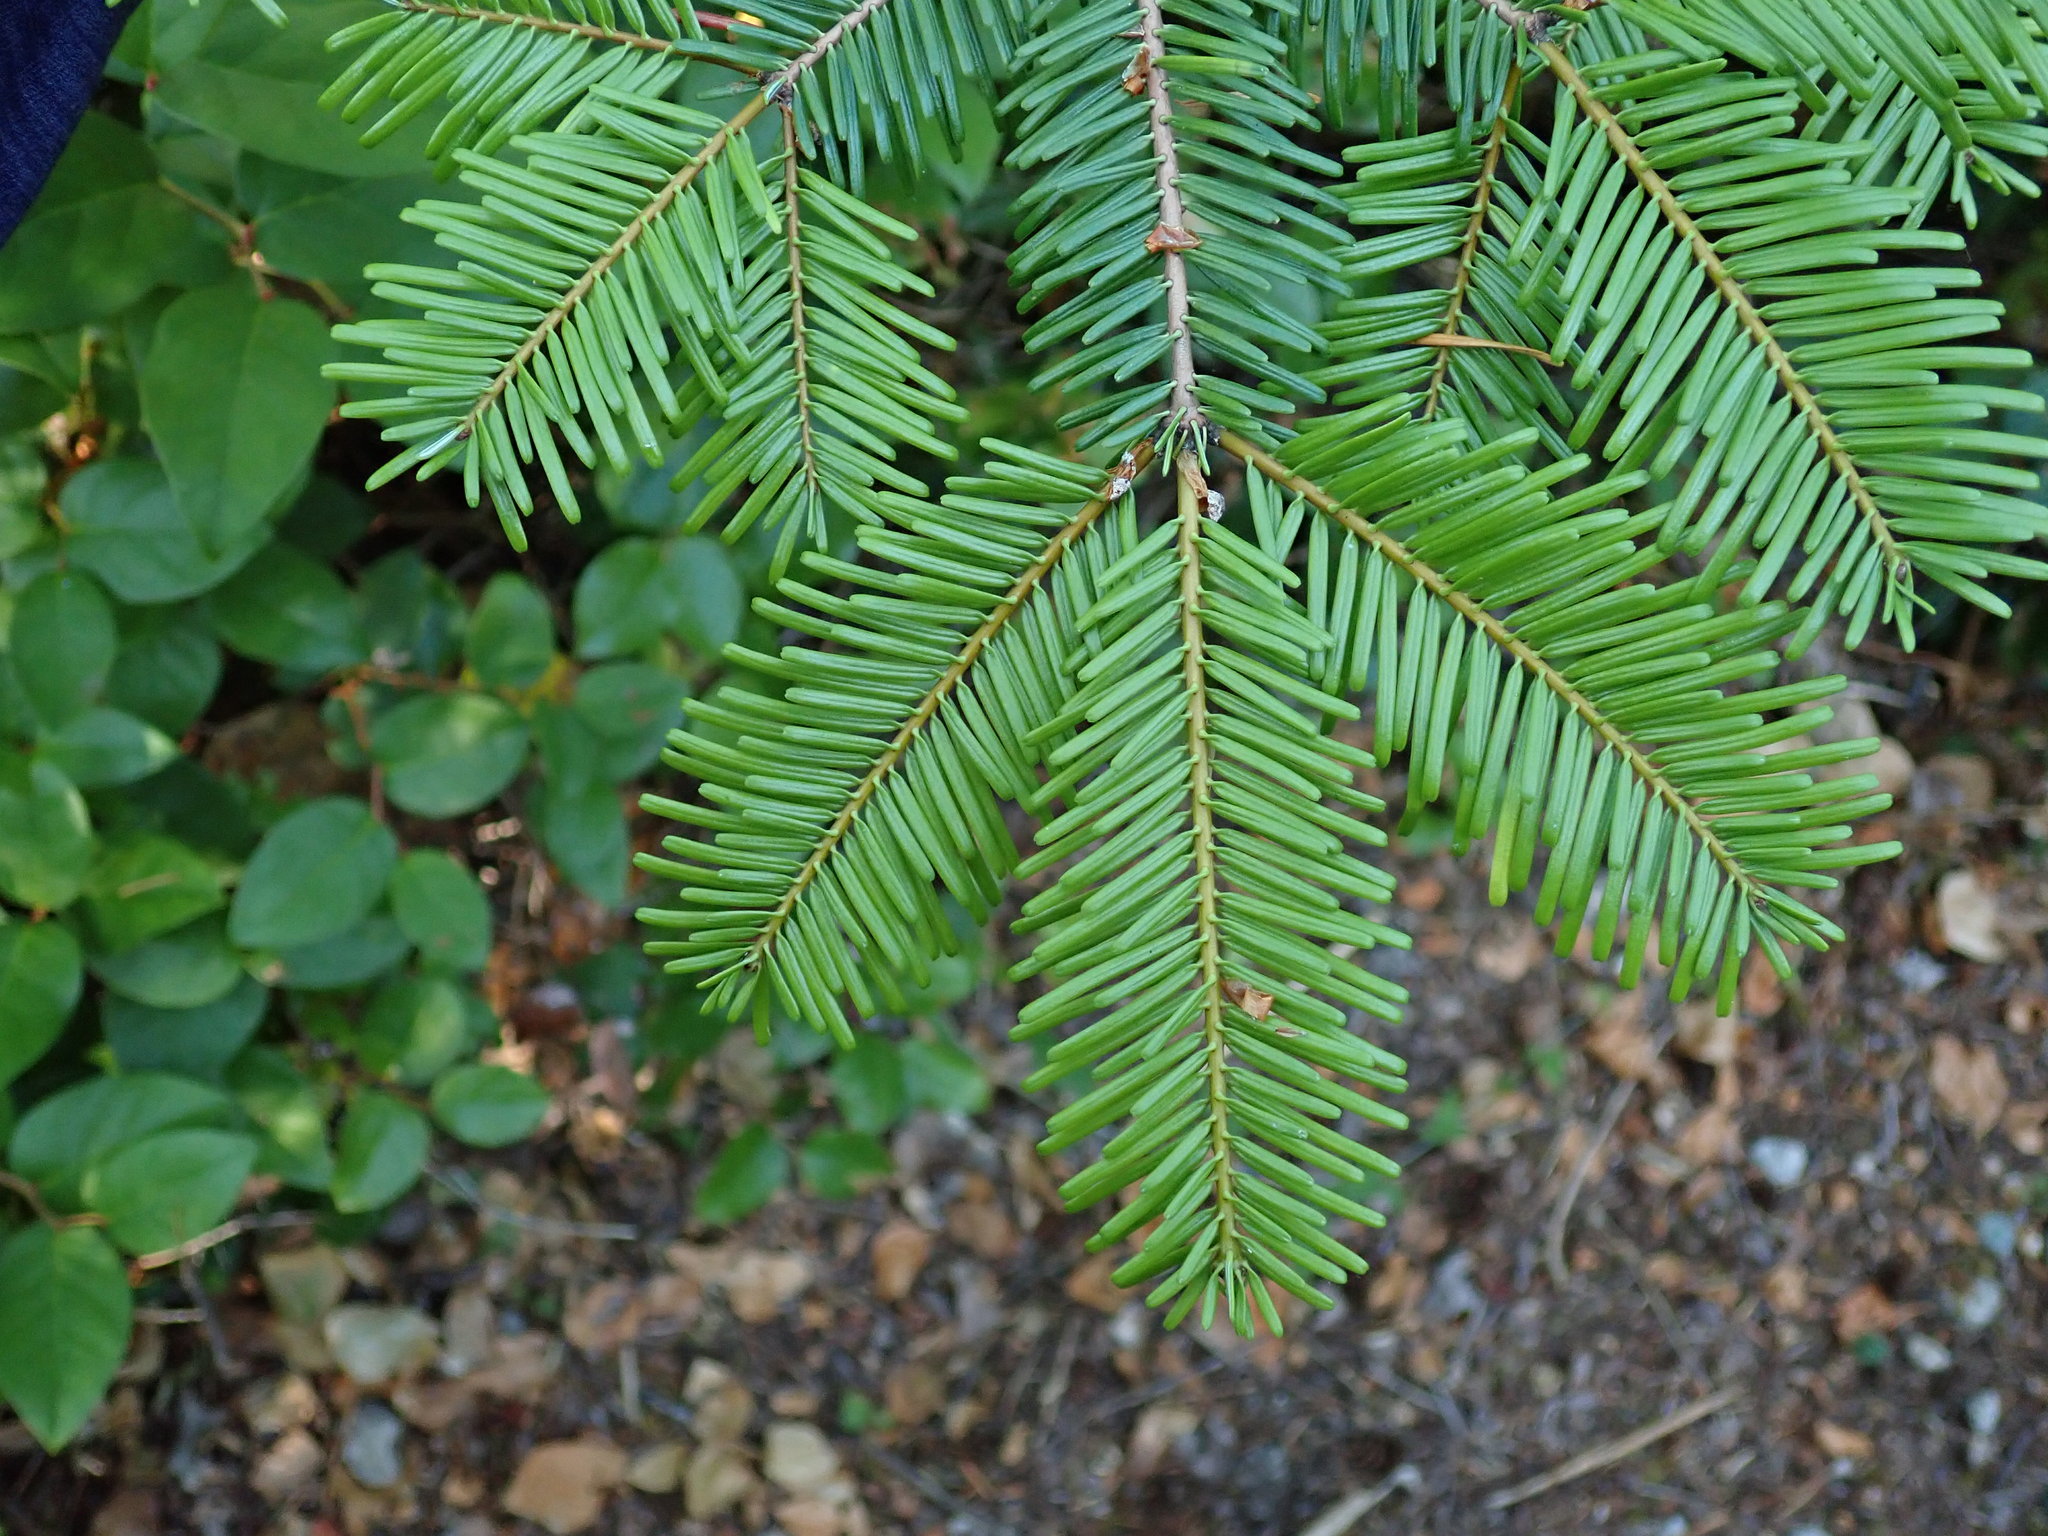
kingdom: Plantae
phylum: Tracheophyta
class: Pinopsida
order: Pinales
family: Pinaceae
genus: Abies
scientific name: Abies grandis
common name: Giant fir
